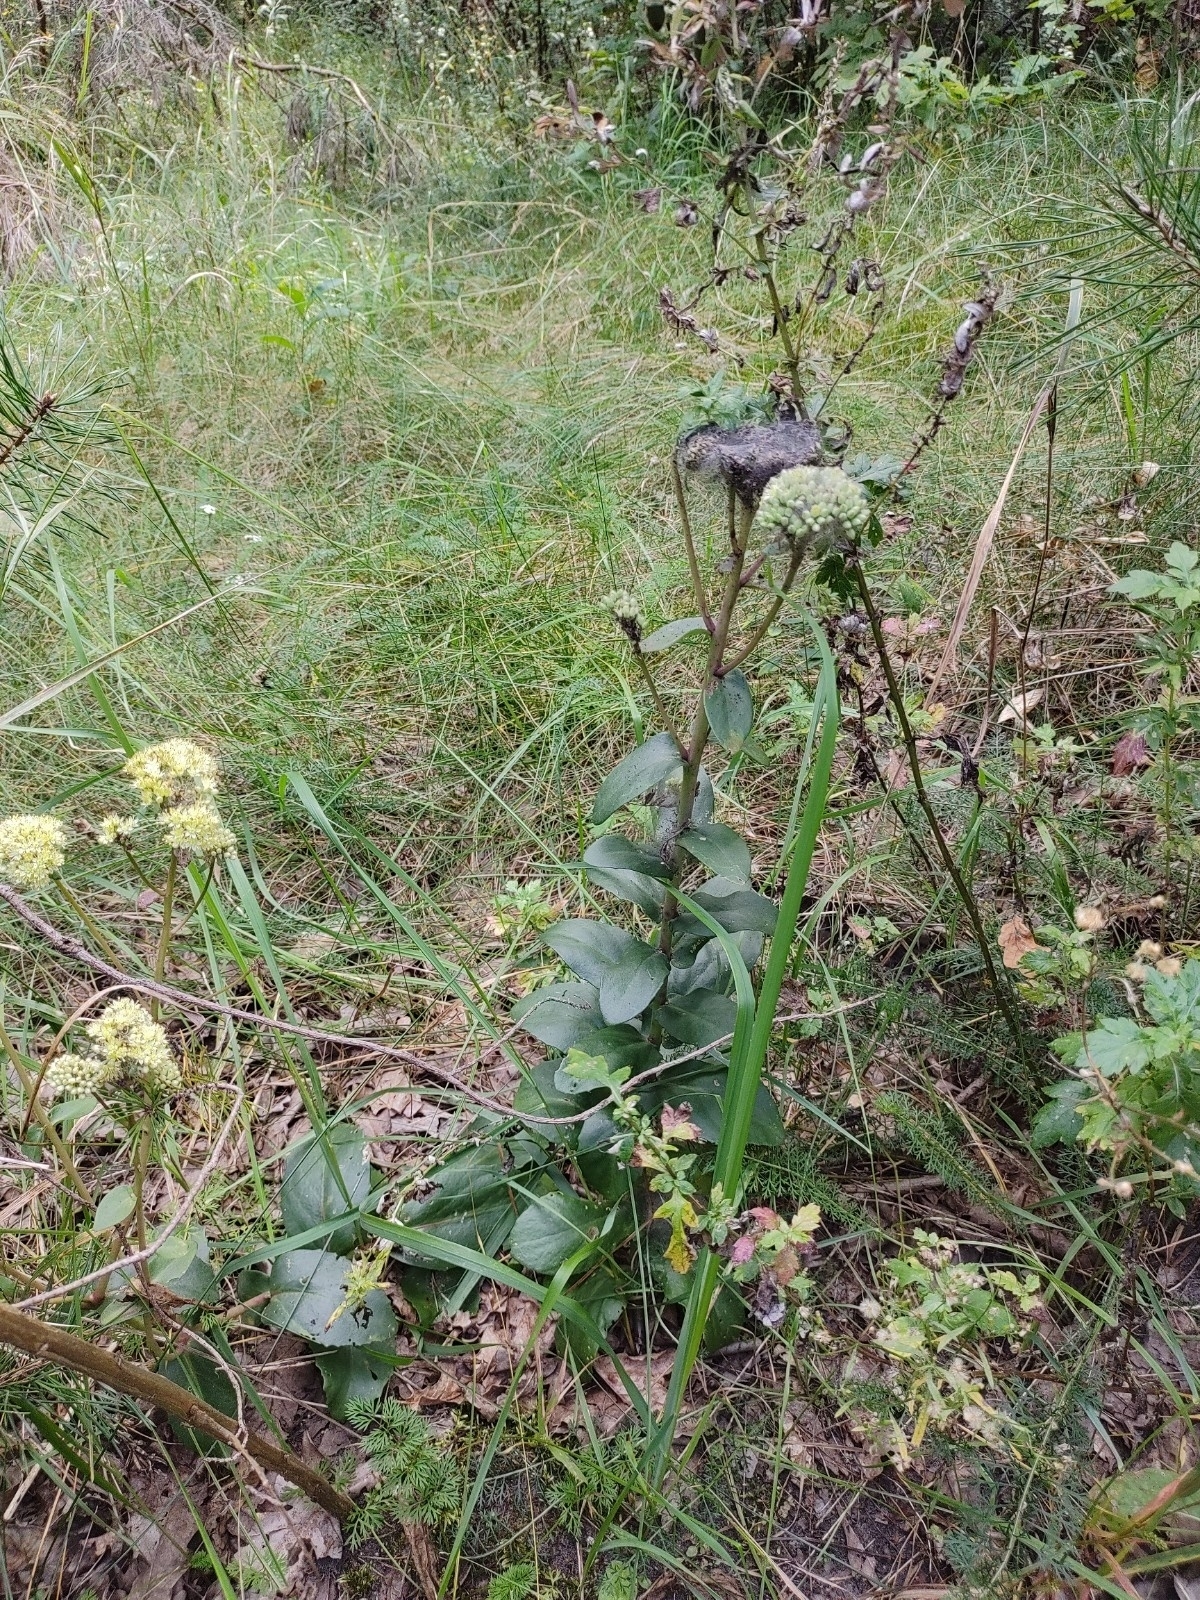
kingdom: Plantae
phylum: Tracheophyta
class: Magnoliopsida
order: Saxifragales
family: Crassulaceae
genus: Hylotelephium
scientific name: Hylotelephium maximum
